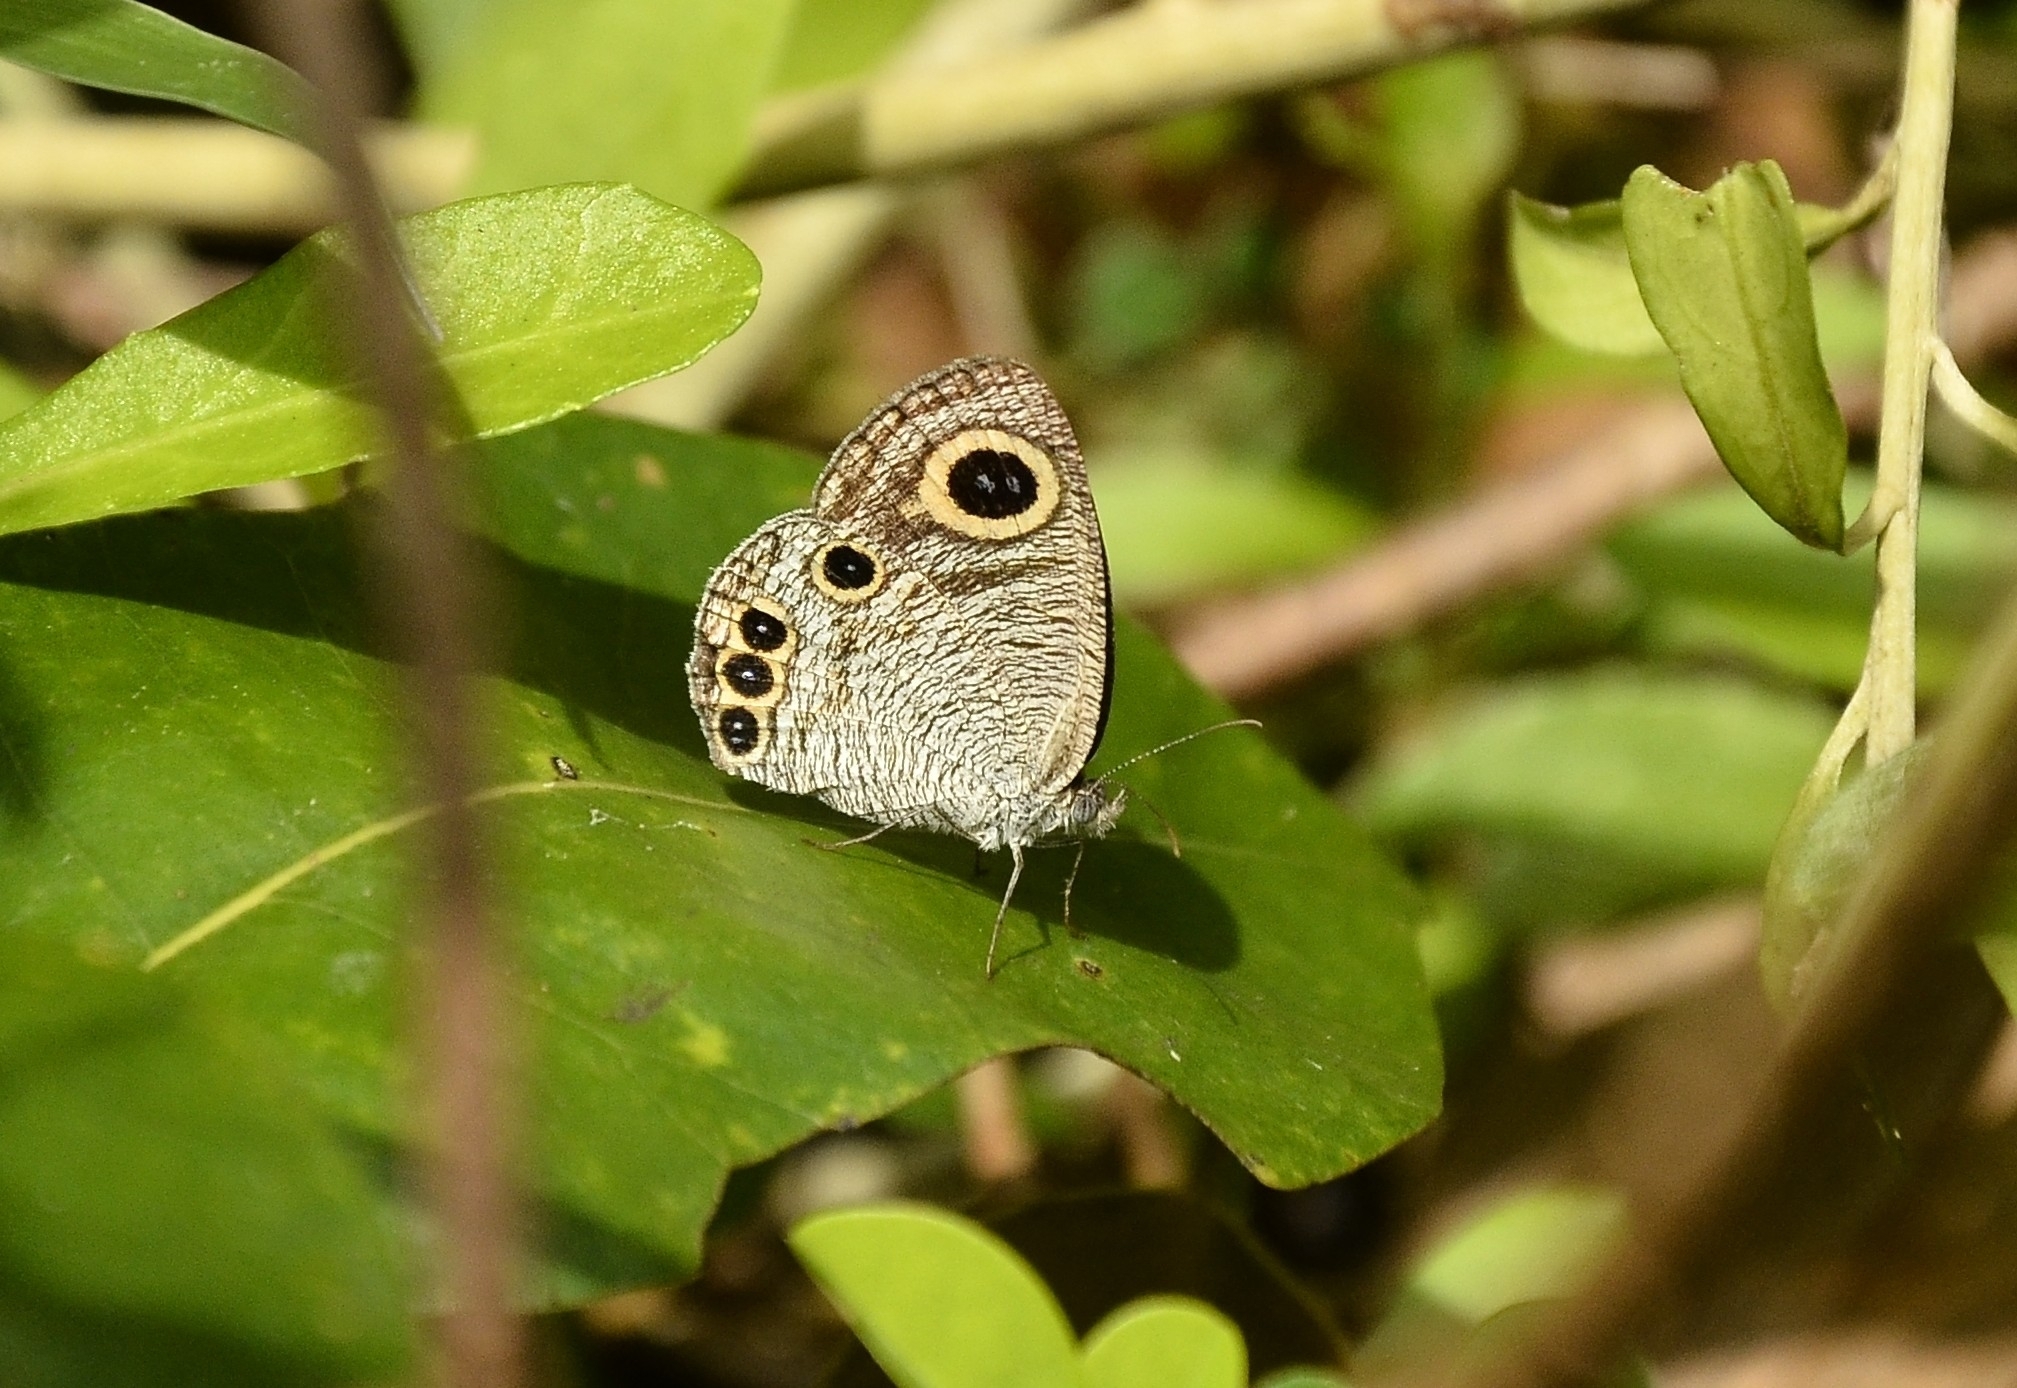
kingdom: Animalia
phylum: Arthropoda
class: Insecta
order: Lepidoptera
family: Nymphalidae
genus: Ypthima
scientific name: Ypthima huebneri
